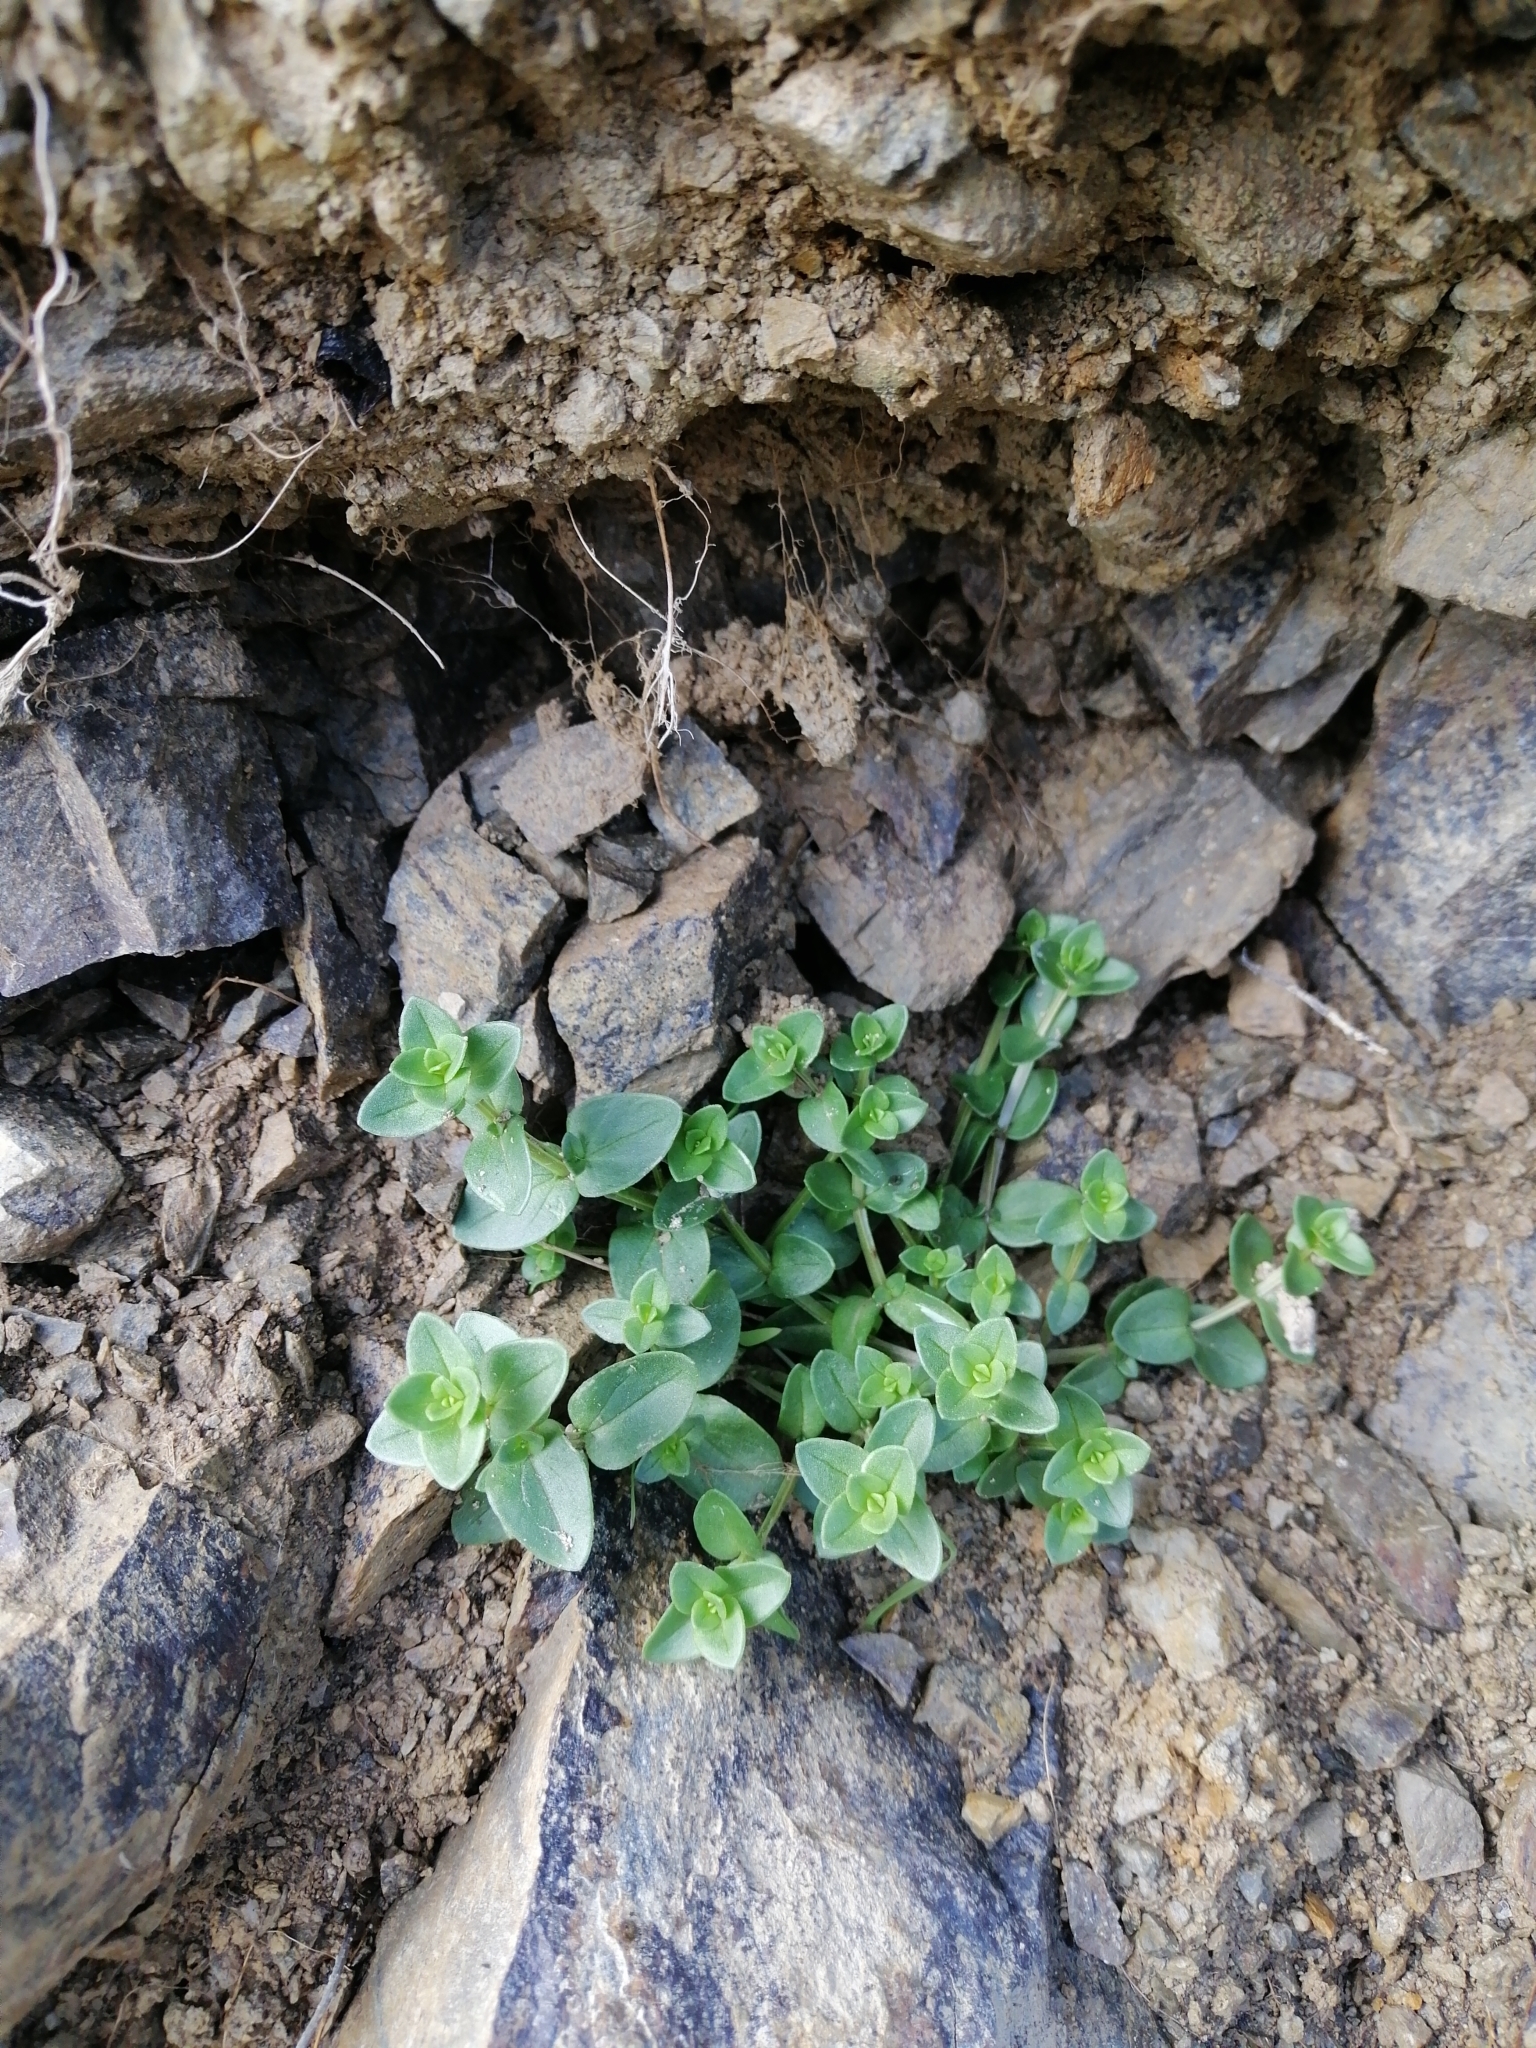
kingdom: Plantae
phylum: Tracheophyta
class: Magnoliopsida
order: Ericales
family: Primulaceae
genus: Lysimachia
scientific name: Lysimachia arvensis
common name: Scarlet pimpernel
